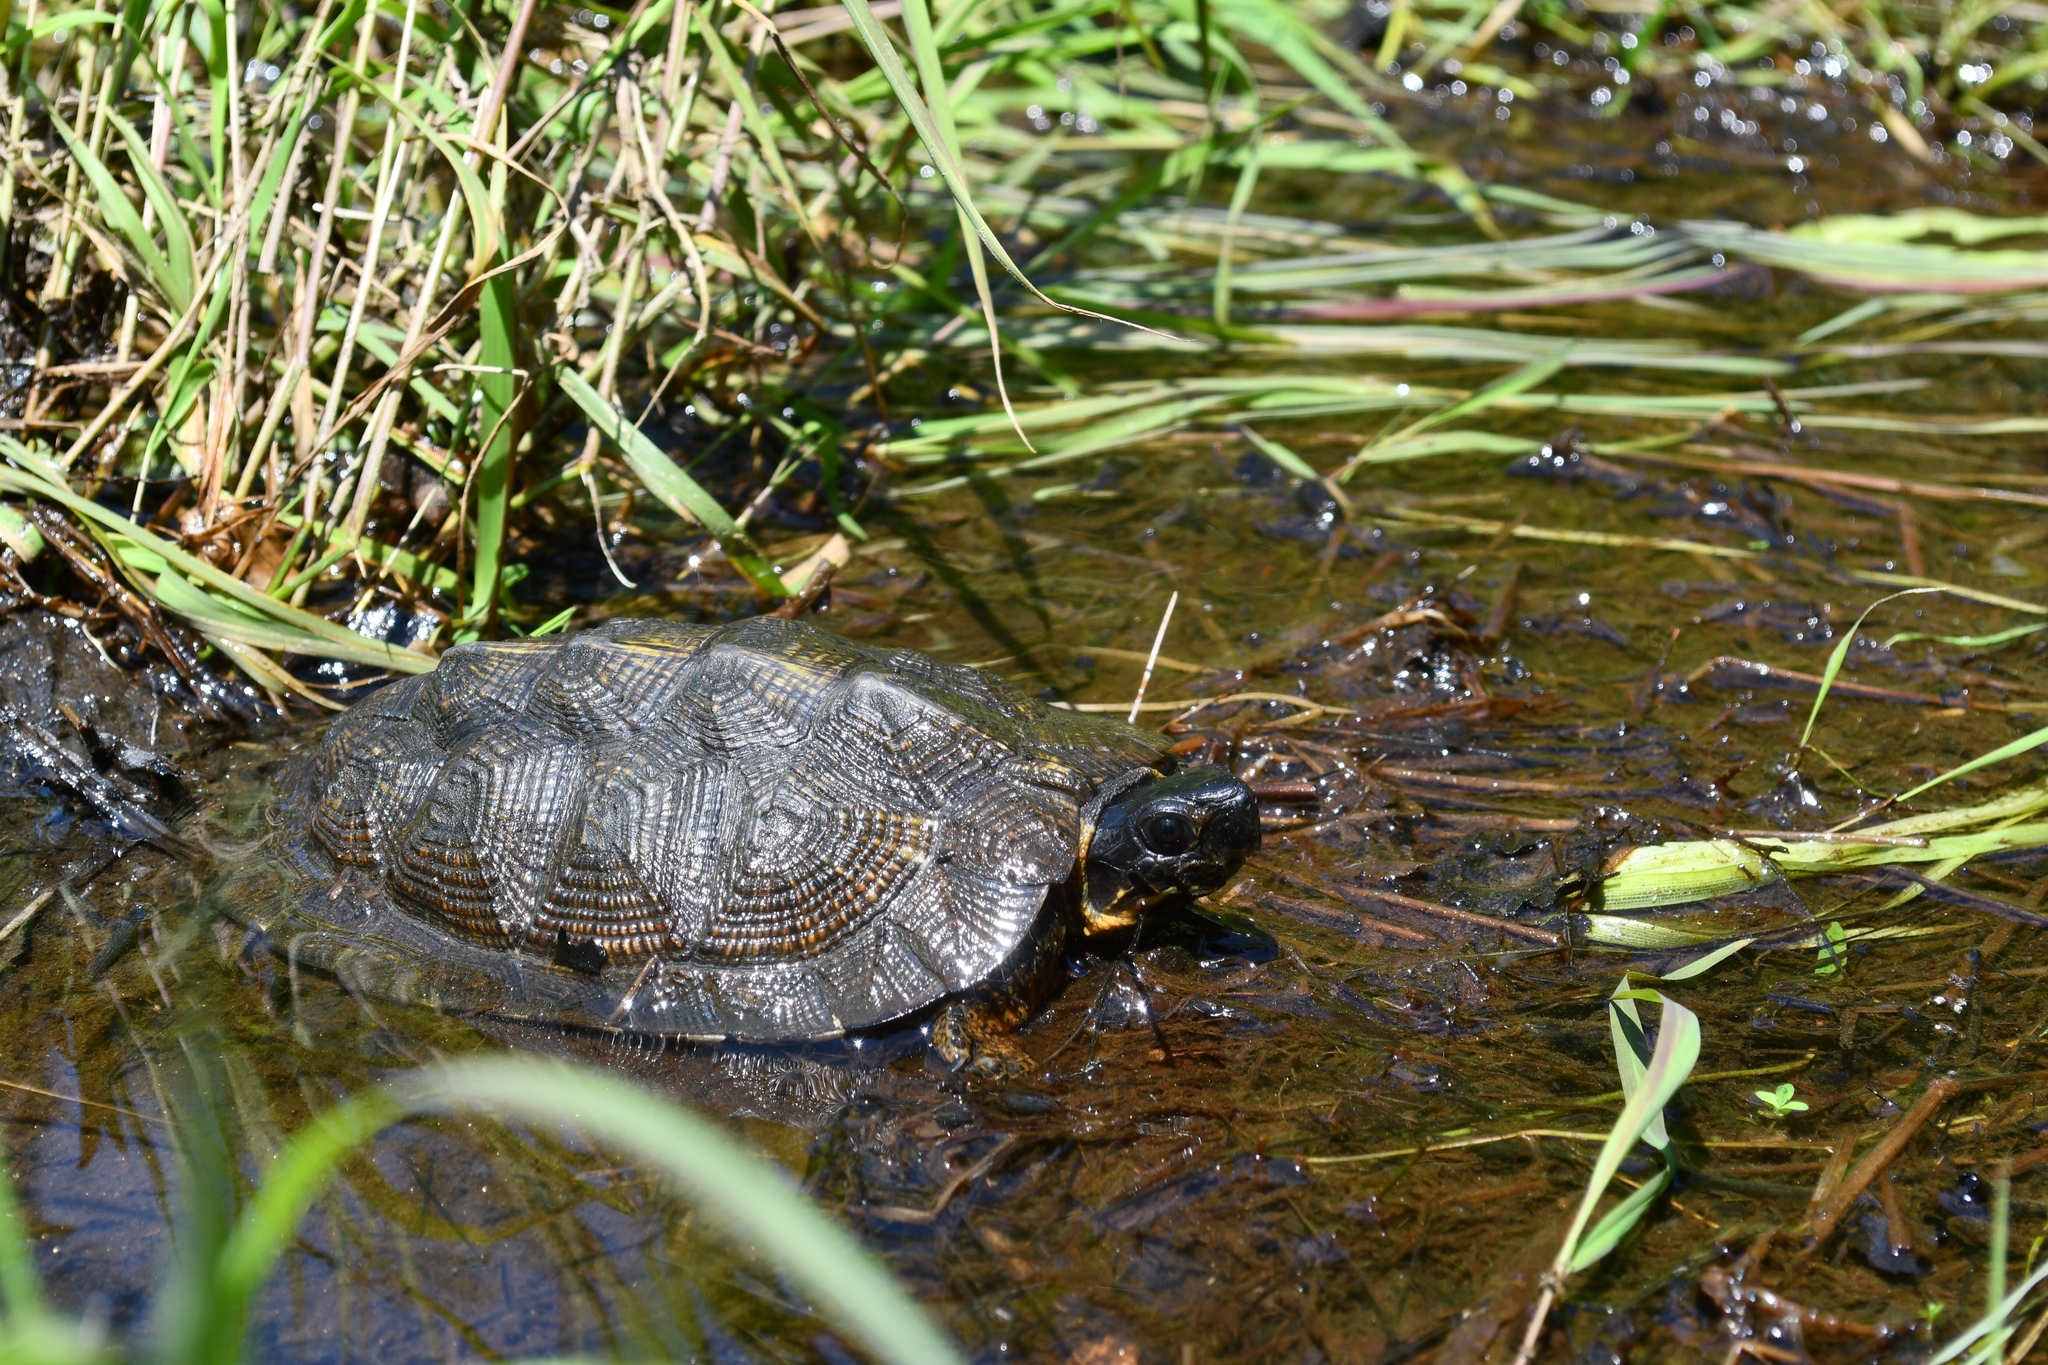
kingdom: Animalia
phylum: Chordata
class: Testudines
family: Emydidae
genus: Glyptemys
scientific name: Glyptemys insculpta
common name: Wood turtle
